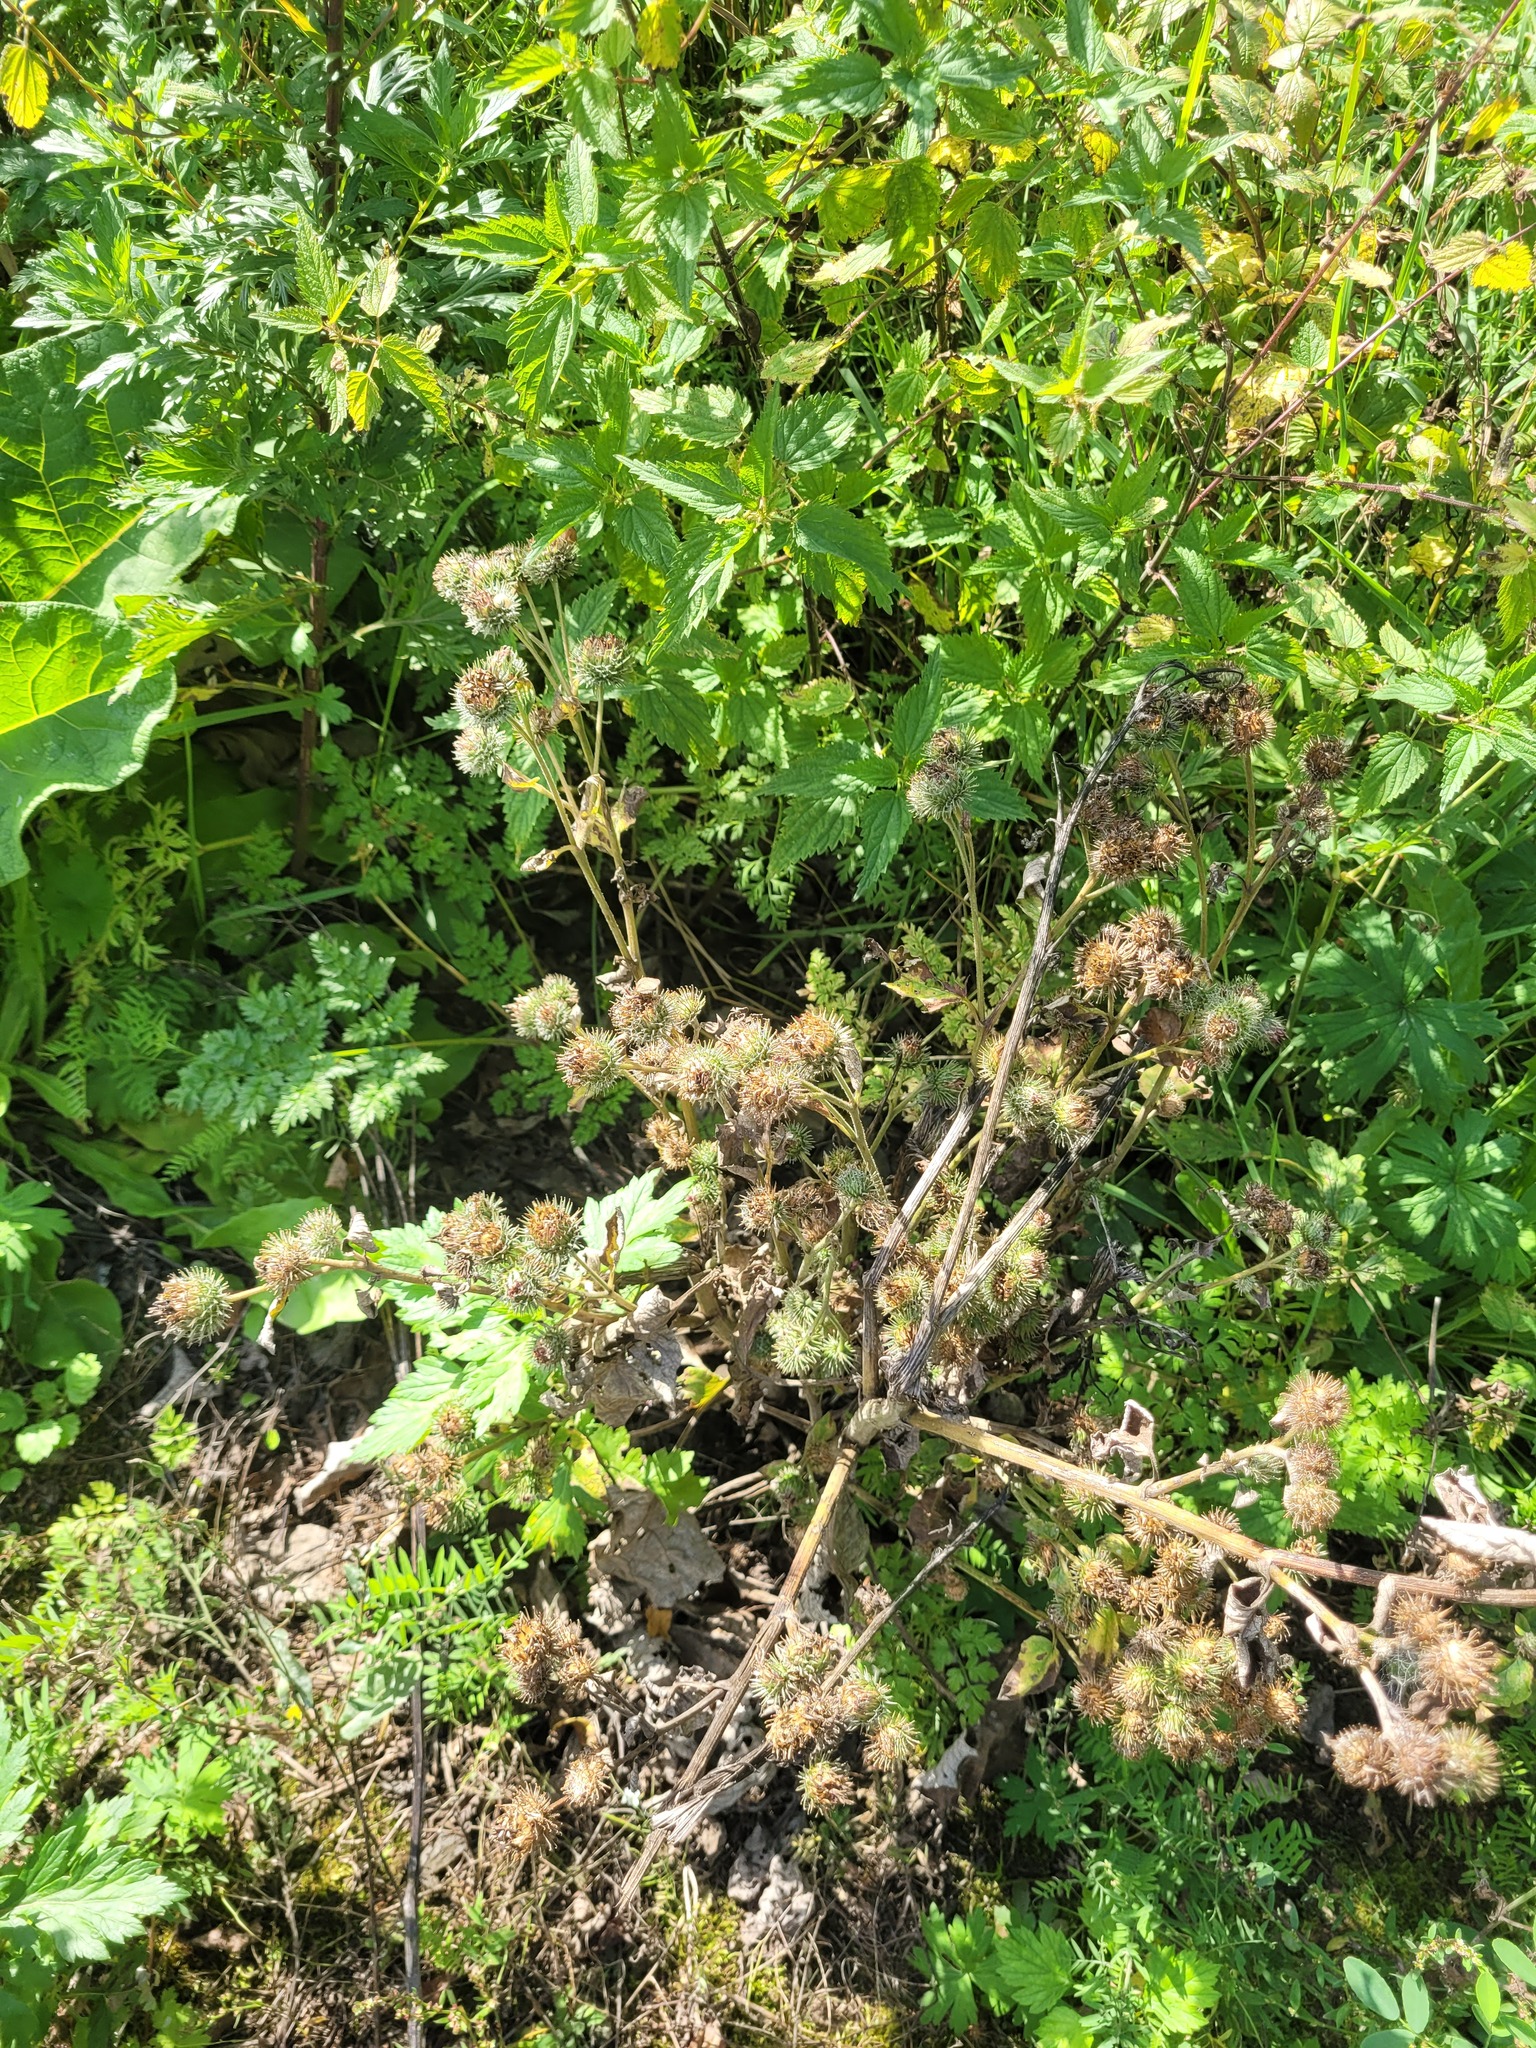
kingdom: Plantae
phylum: Tracheophyta
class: Magnoliopsida
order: Asterales
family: Asteraceae
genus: Arctium
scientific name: Arctium tomentosum
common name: Woolly burdock
